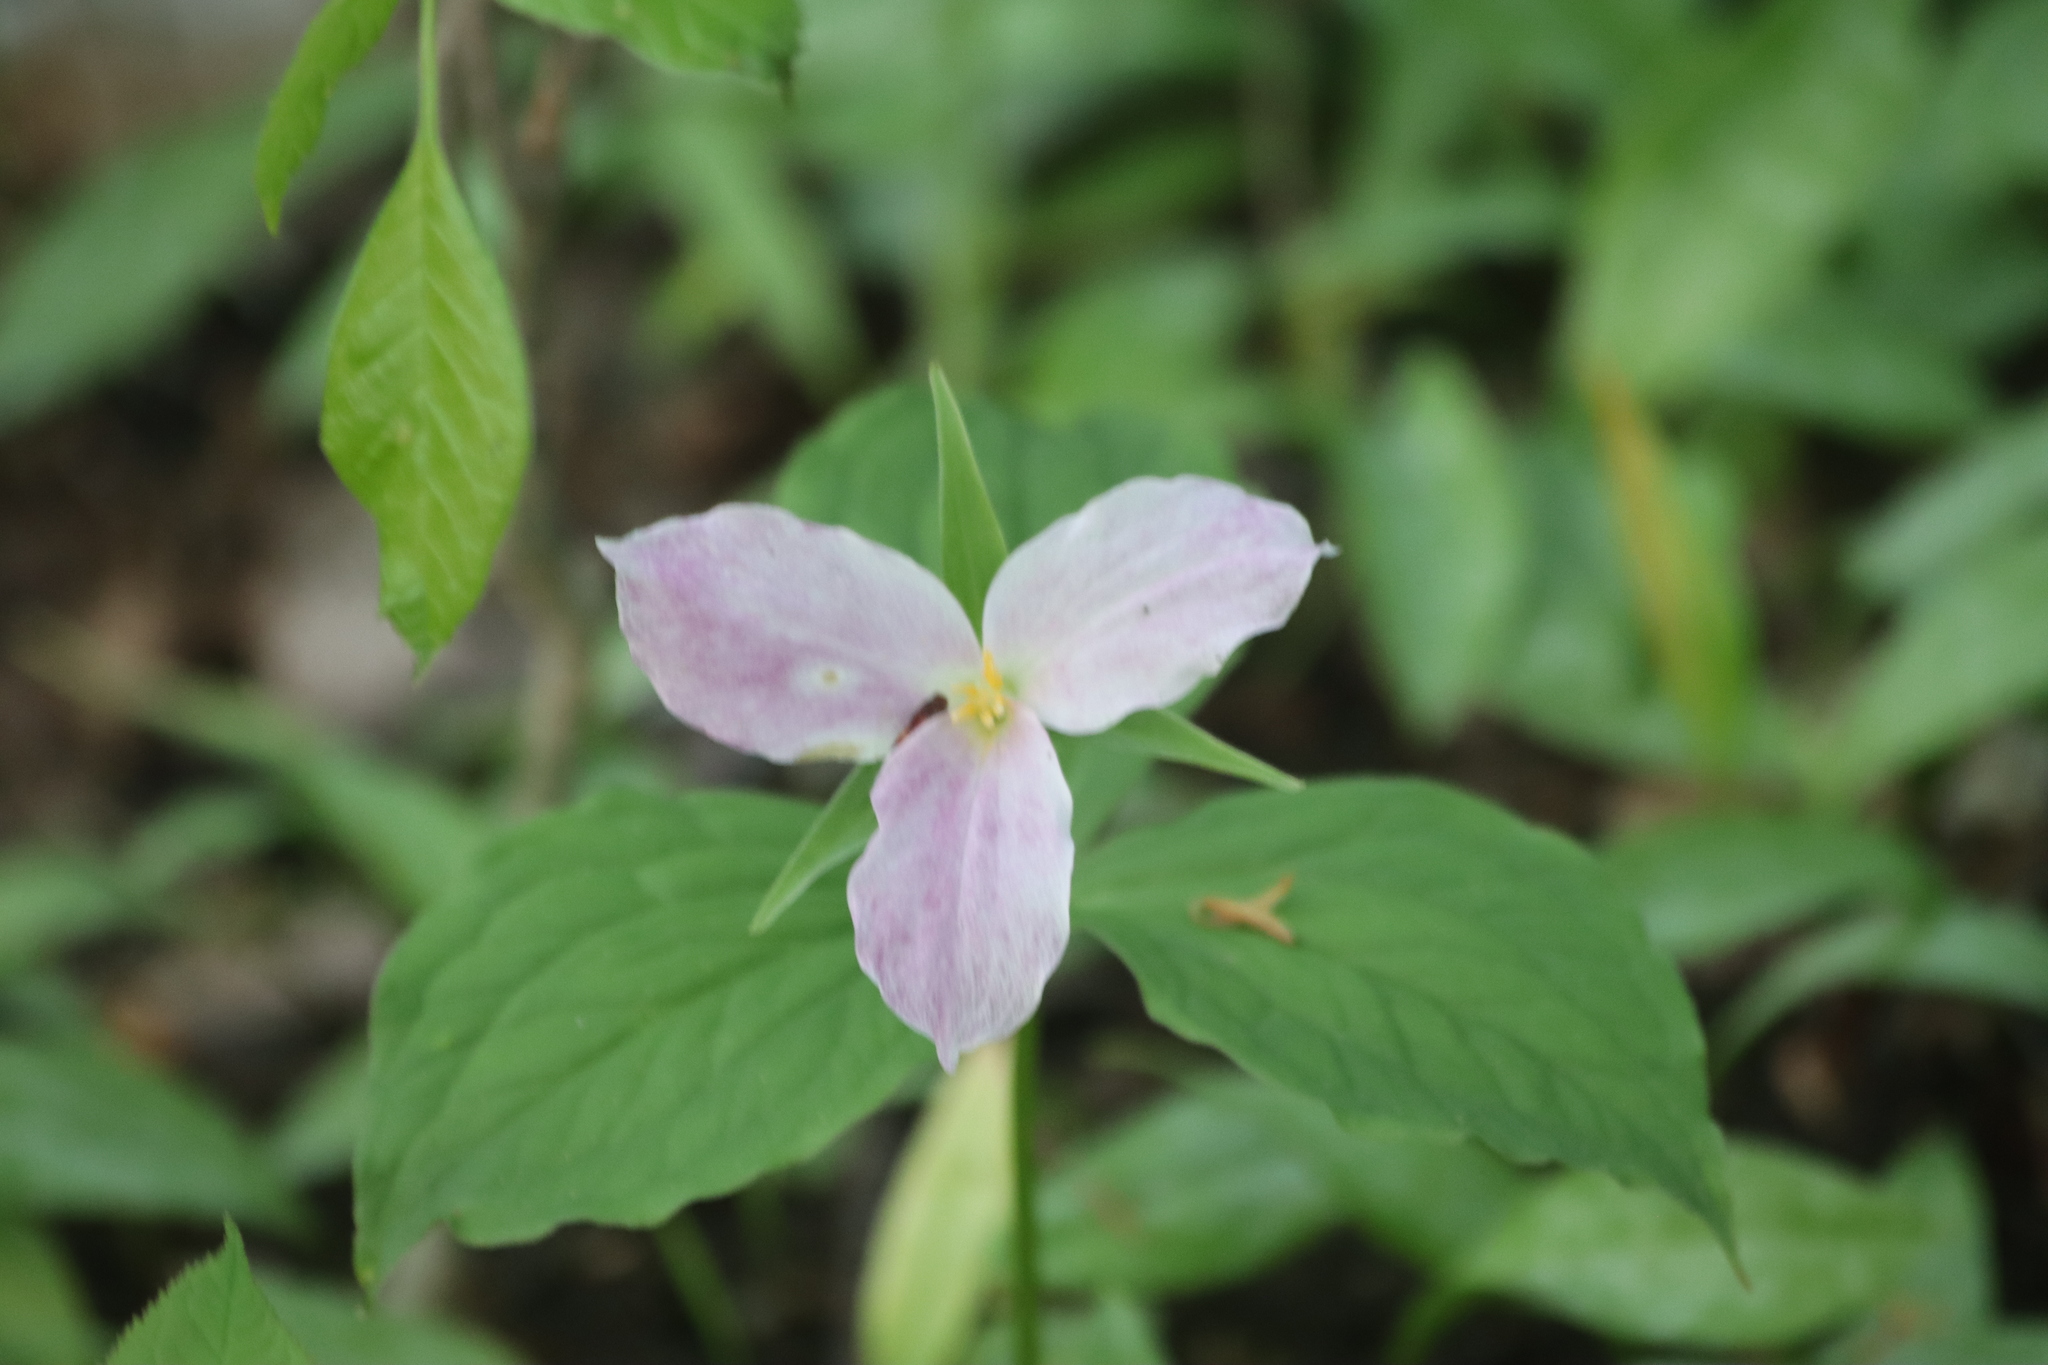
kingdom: Plantae
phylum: Tracheophyta
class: Liliopsida
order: Liliales
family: Melanthiaceae
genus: Trillium
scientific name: Trillium grandiflorum
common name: Great white trillium
